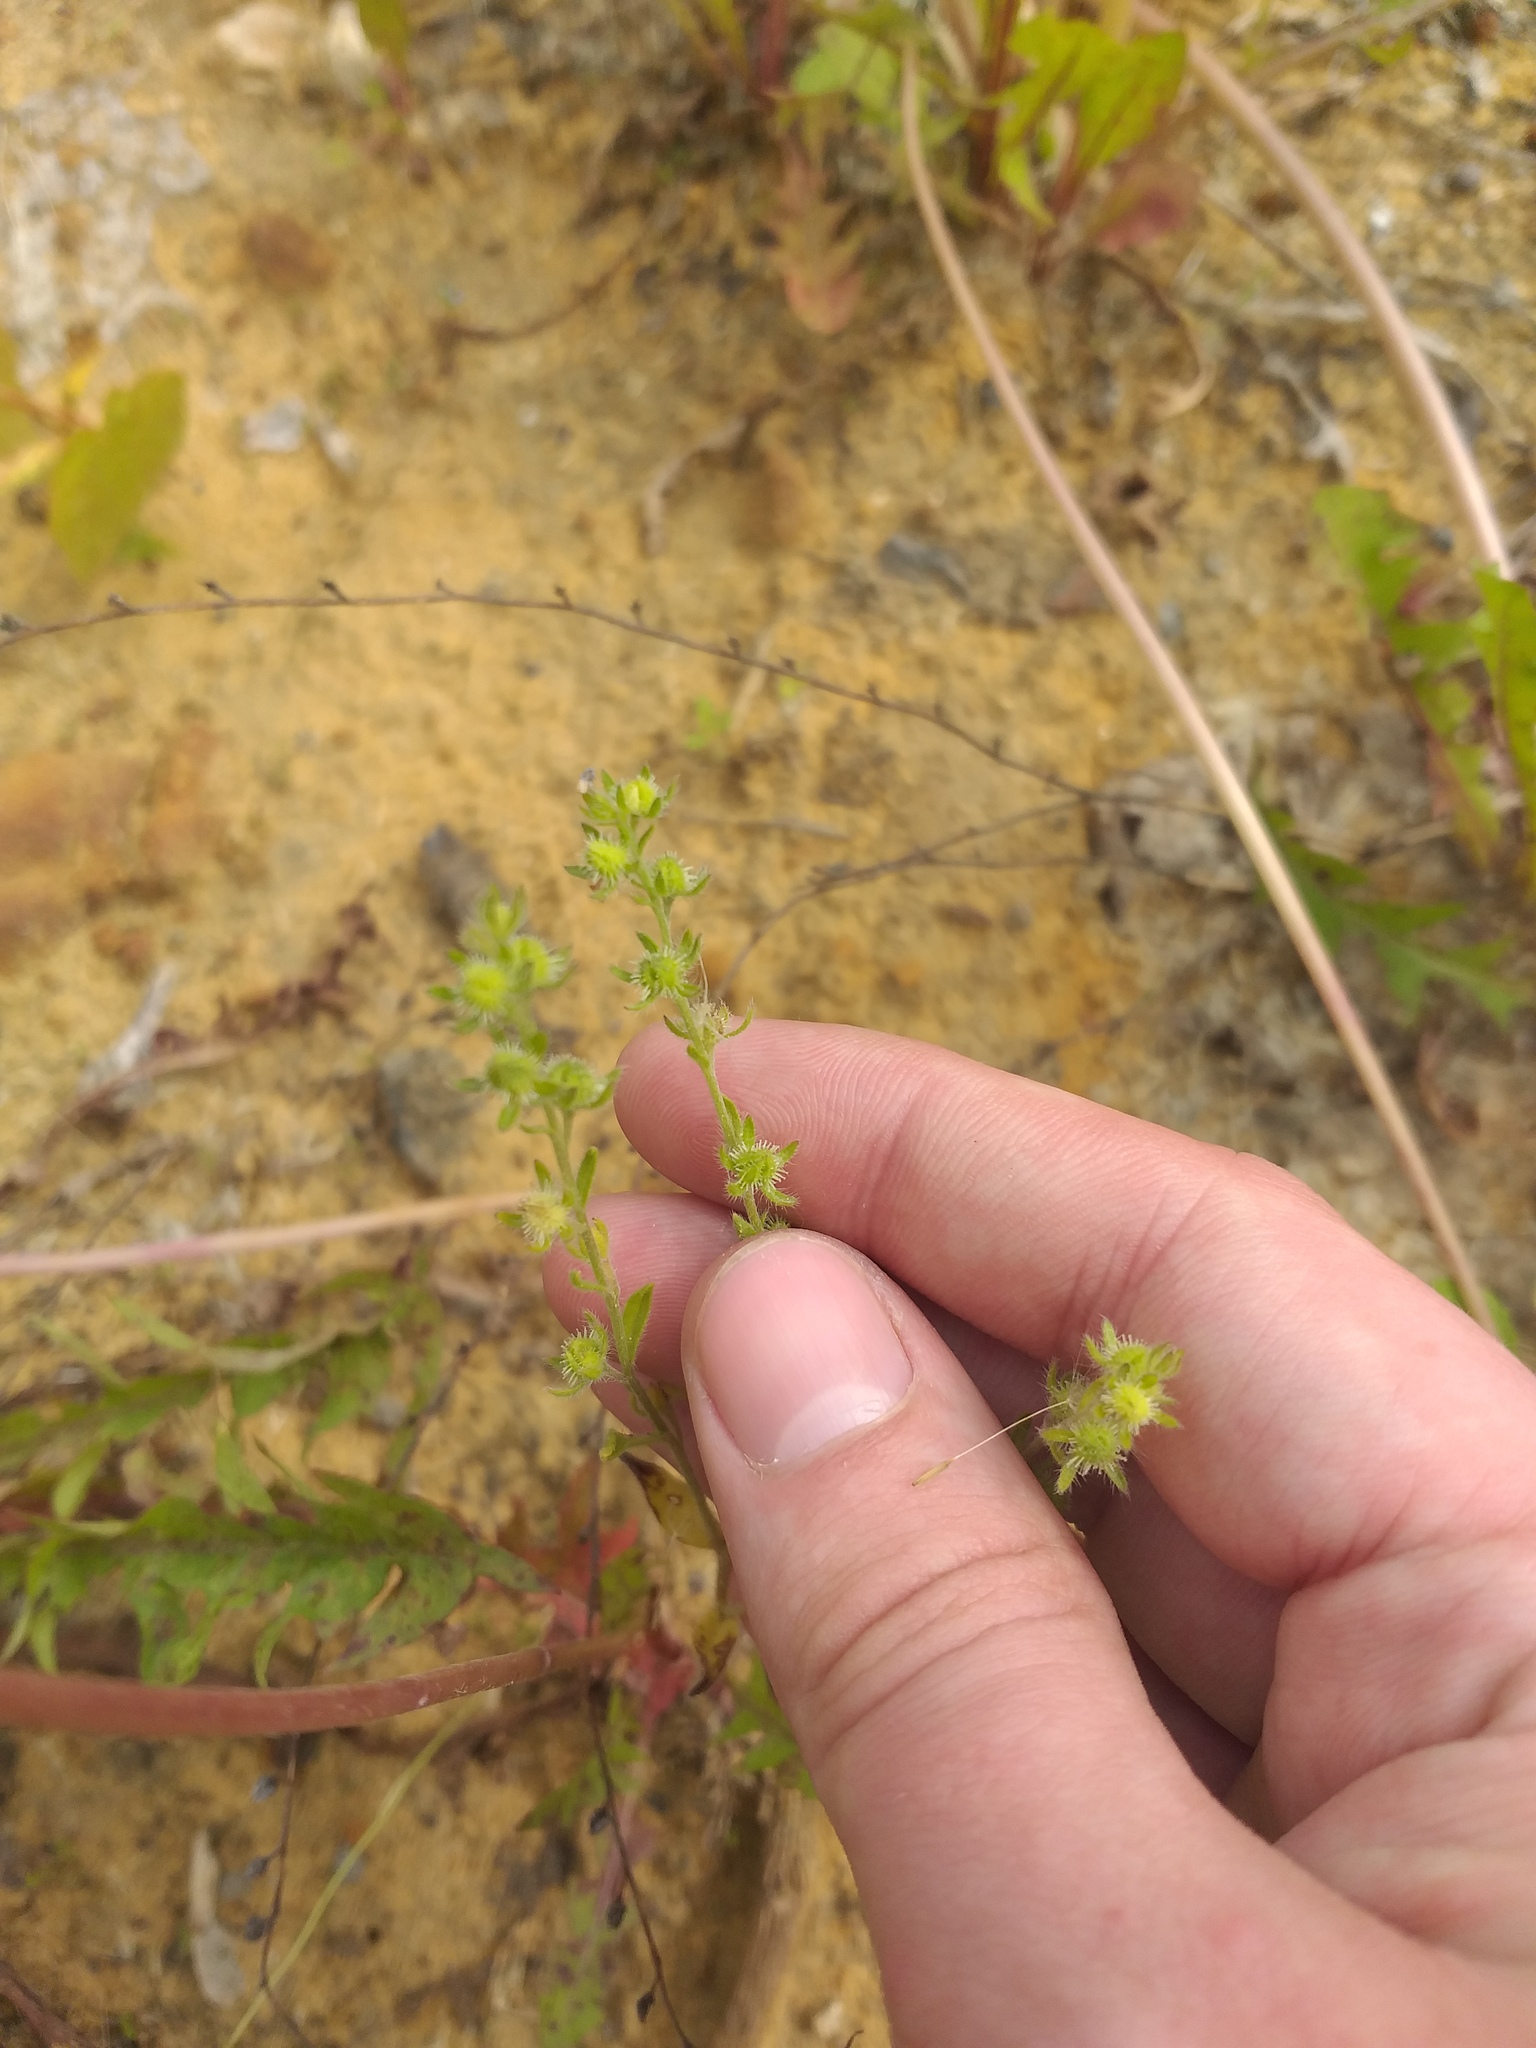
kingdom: Plantae
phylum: Tracheophyta
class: Magnoliopsida
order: Boraginales
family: Boraginaceae
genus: Lappula
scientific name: Lappula squarrosa
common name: European stickseed
